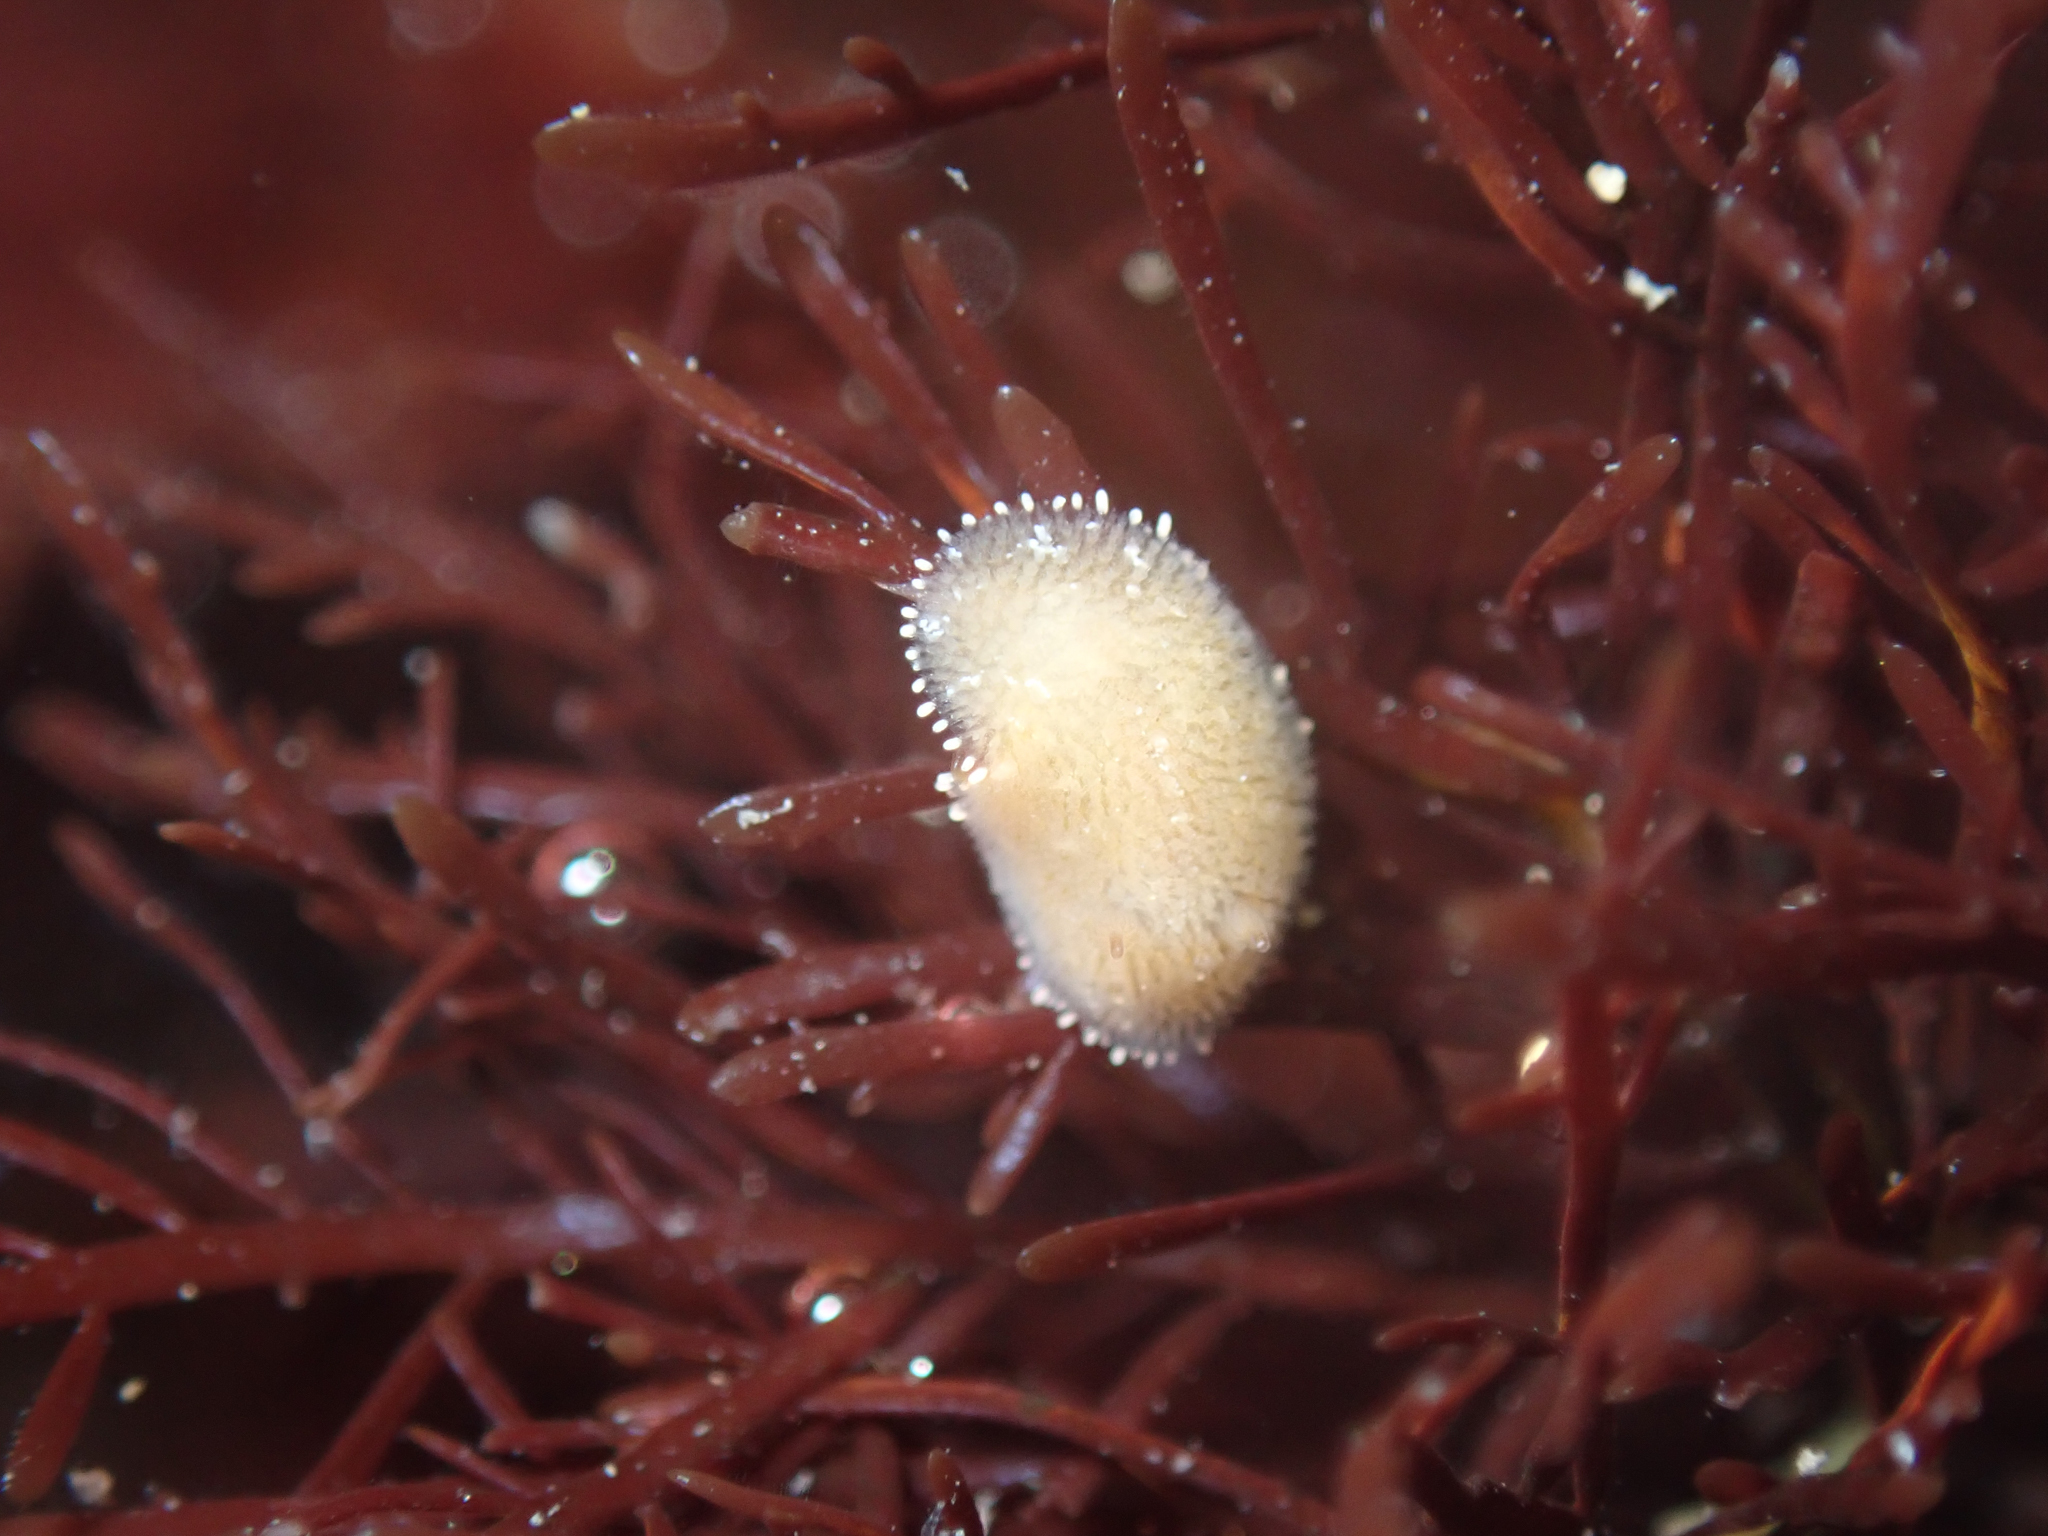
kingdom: Animalia
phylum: Mollusca
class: Gastropoda
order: Nudibranchia
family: Discodorididae
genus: Rostanga
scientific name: Rostanga pulchra
